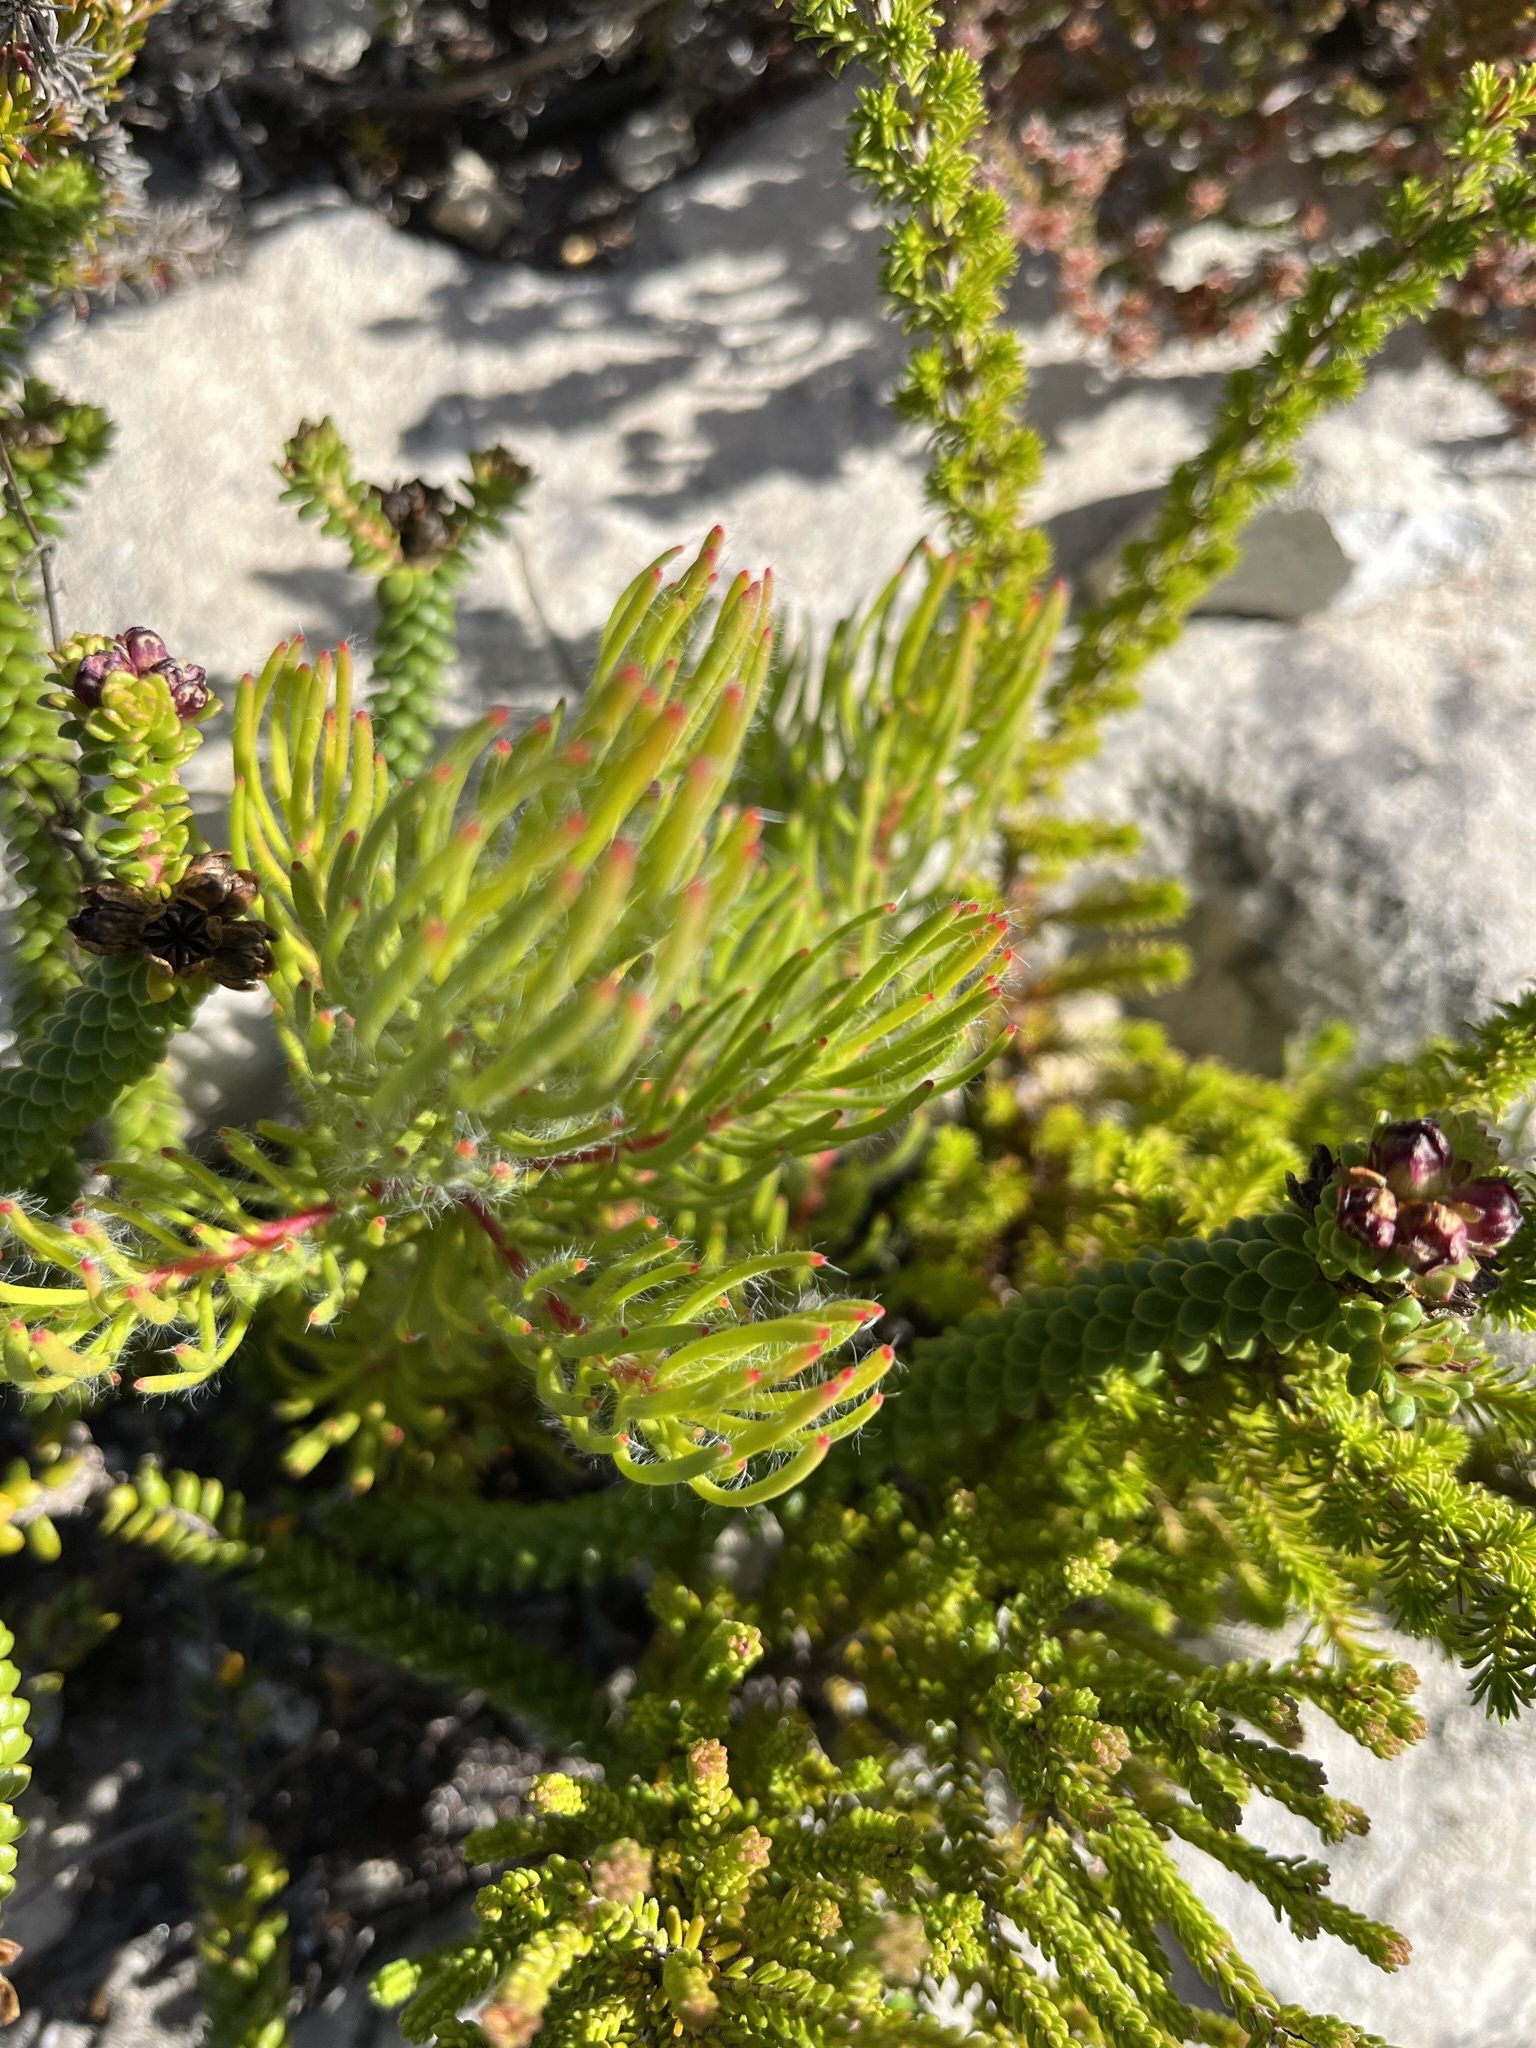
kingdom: Plantae
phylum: Tracheophyta
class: Magnoliopsida
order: Proteales
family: Proteaceae
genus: Leucadendron
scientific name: Leucadendron muirii
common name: Silver-ball conebush
